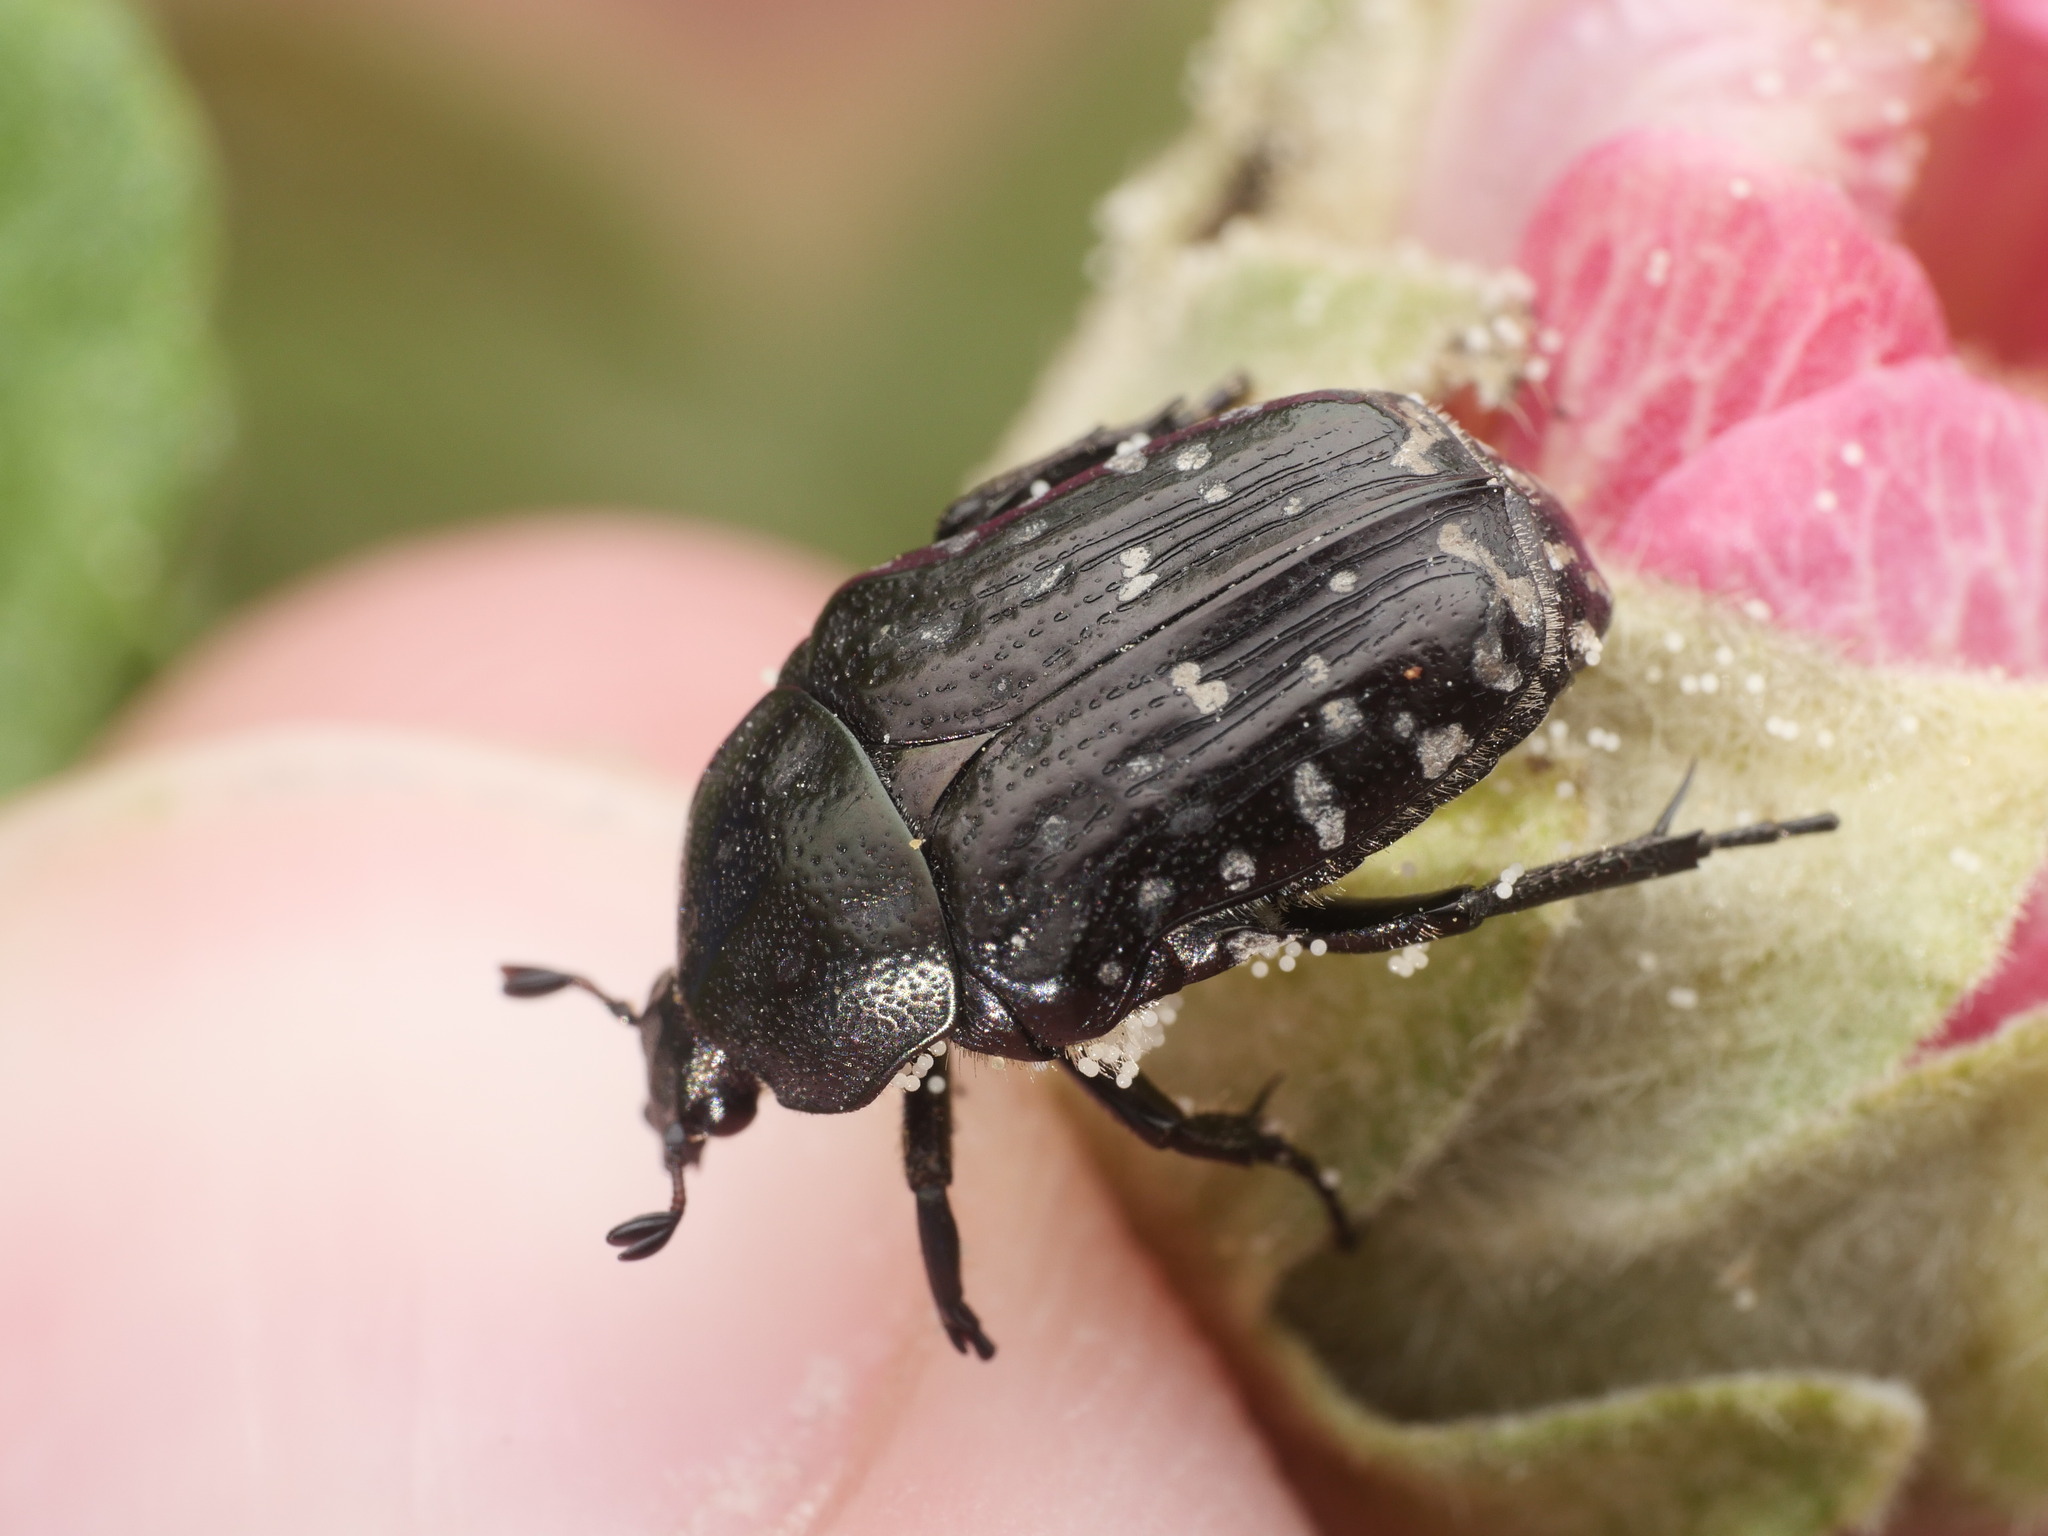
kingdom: Animalia
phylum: Arthropoda
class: Insecta
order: Coleoptera
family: Scarabaeidae
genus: Oxythyrea
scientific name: Oxythyrea funesta
